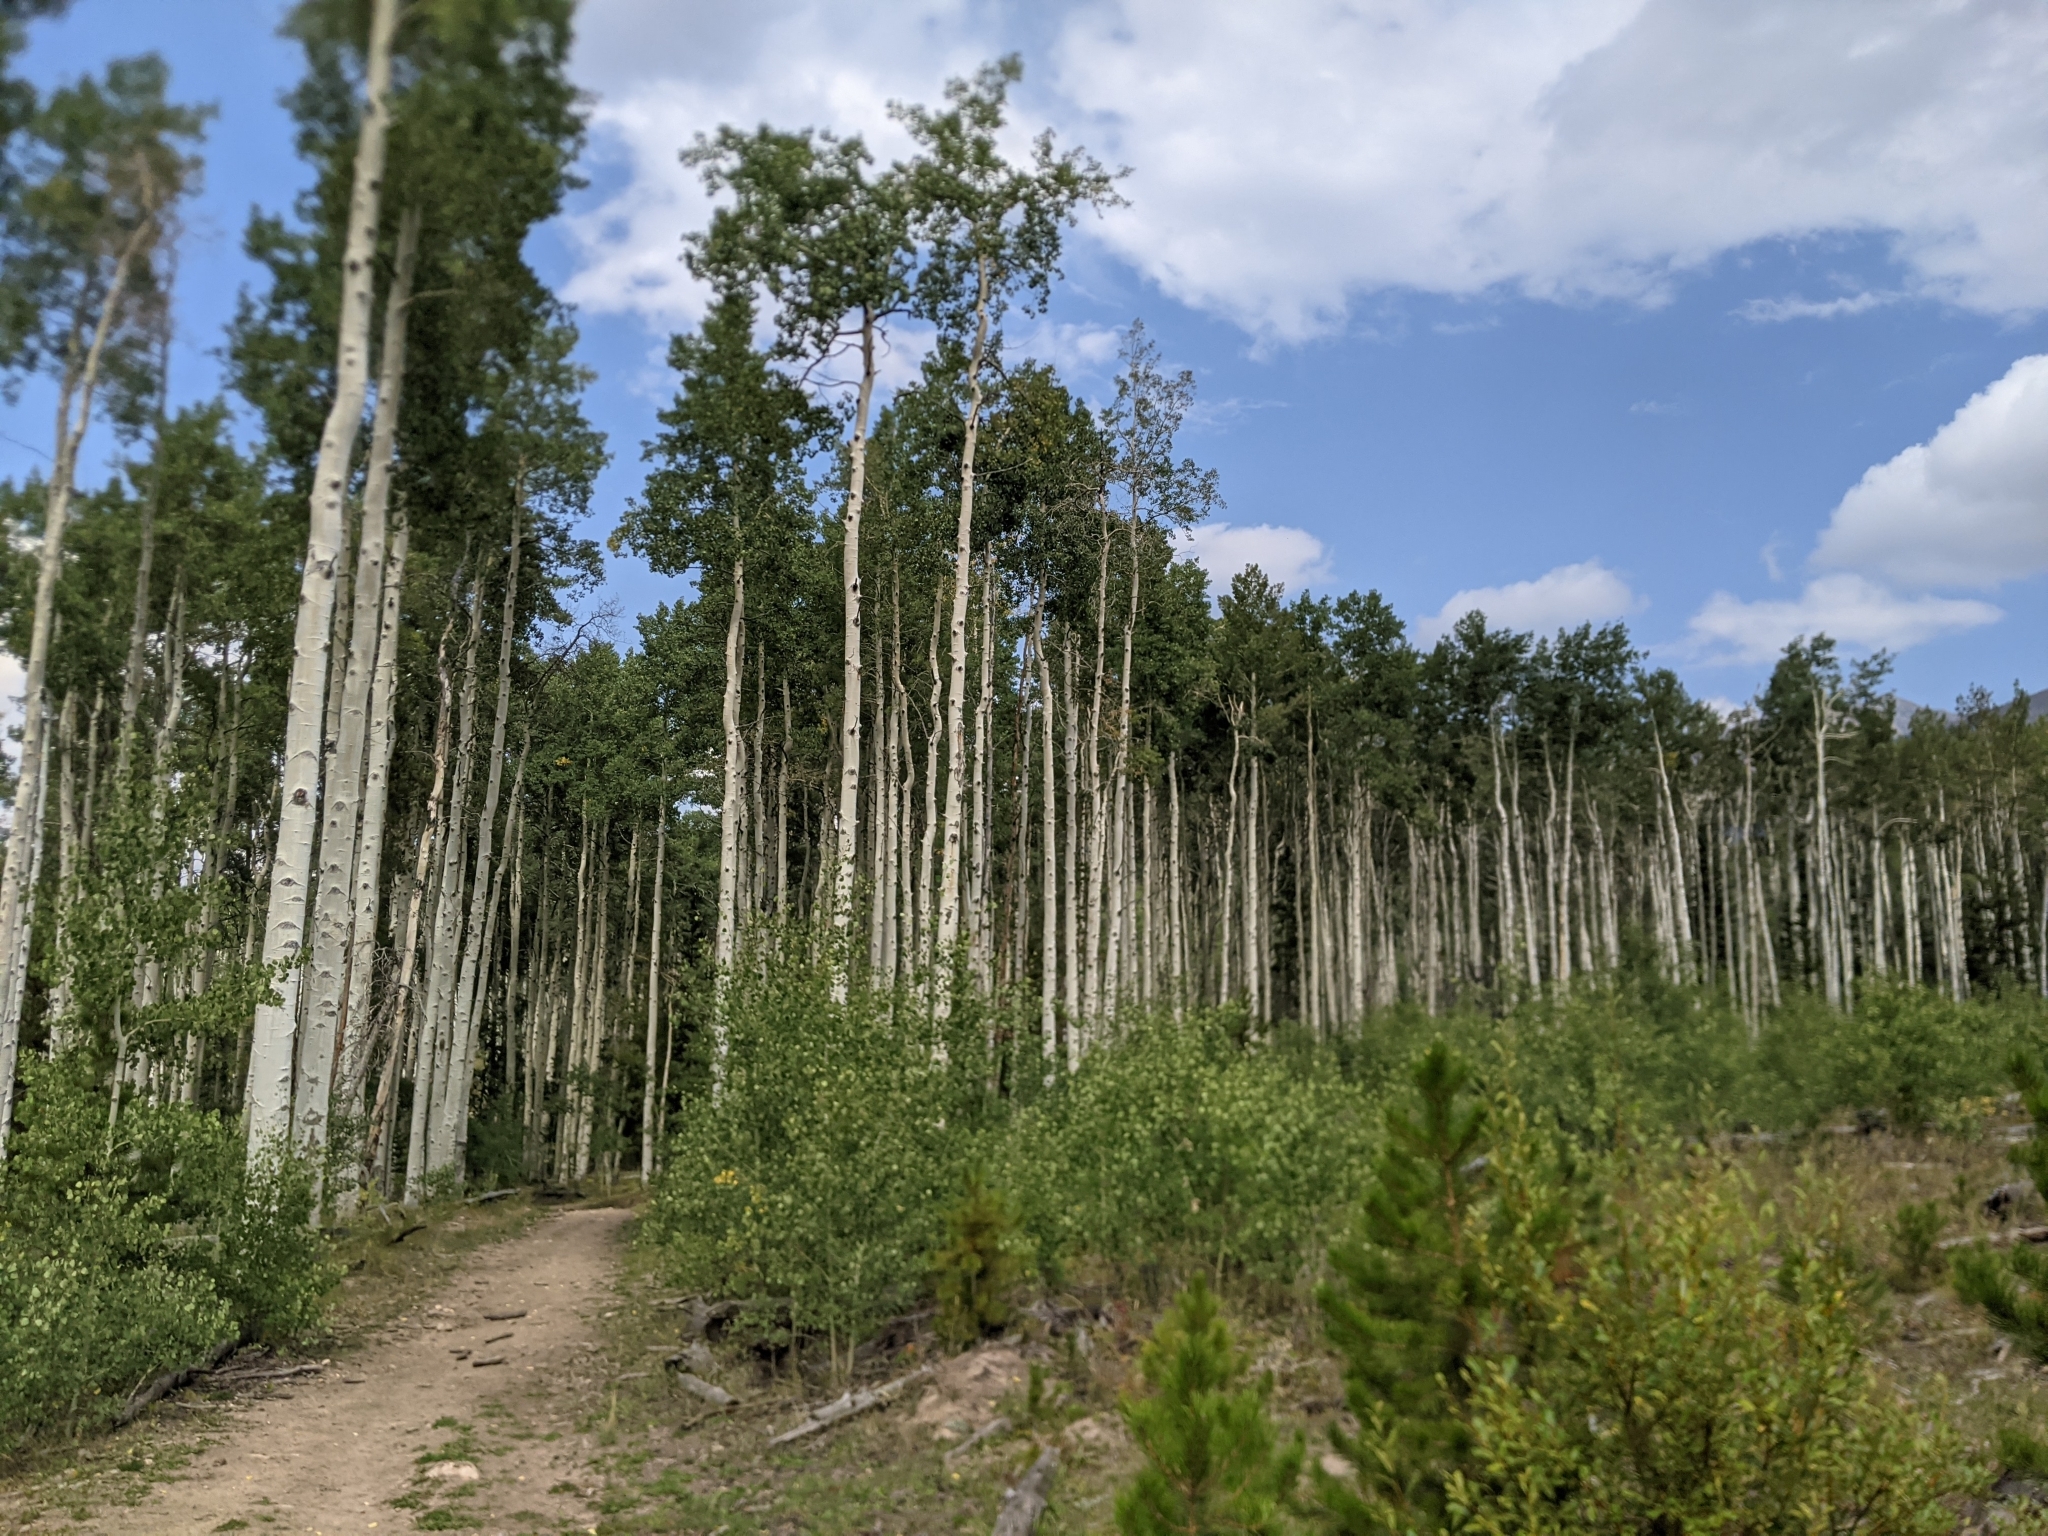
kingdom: Plantae
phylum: Tracheophyta
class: Magnoliopsida
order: Malpighiales
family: Salicaceae
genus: Populus
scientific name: Populus tremuloides
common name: Quaking aspen
